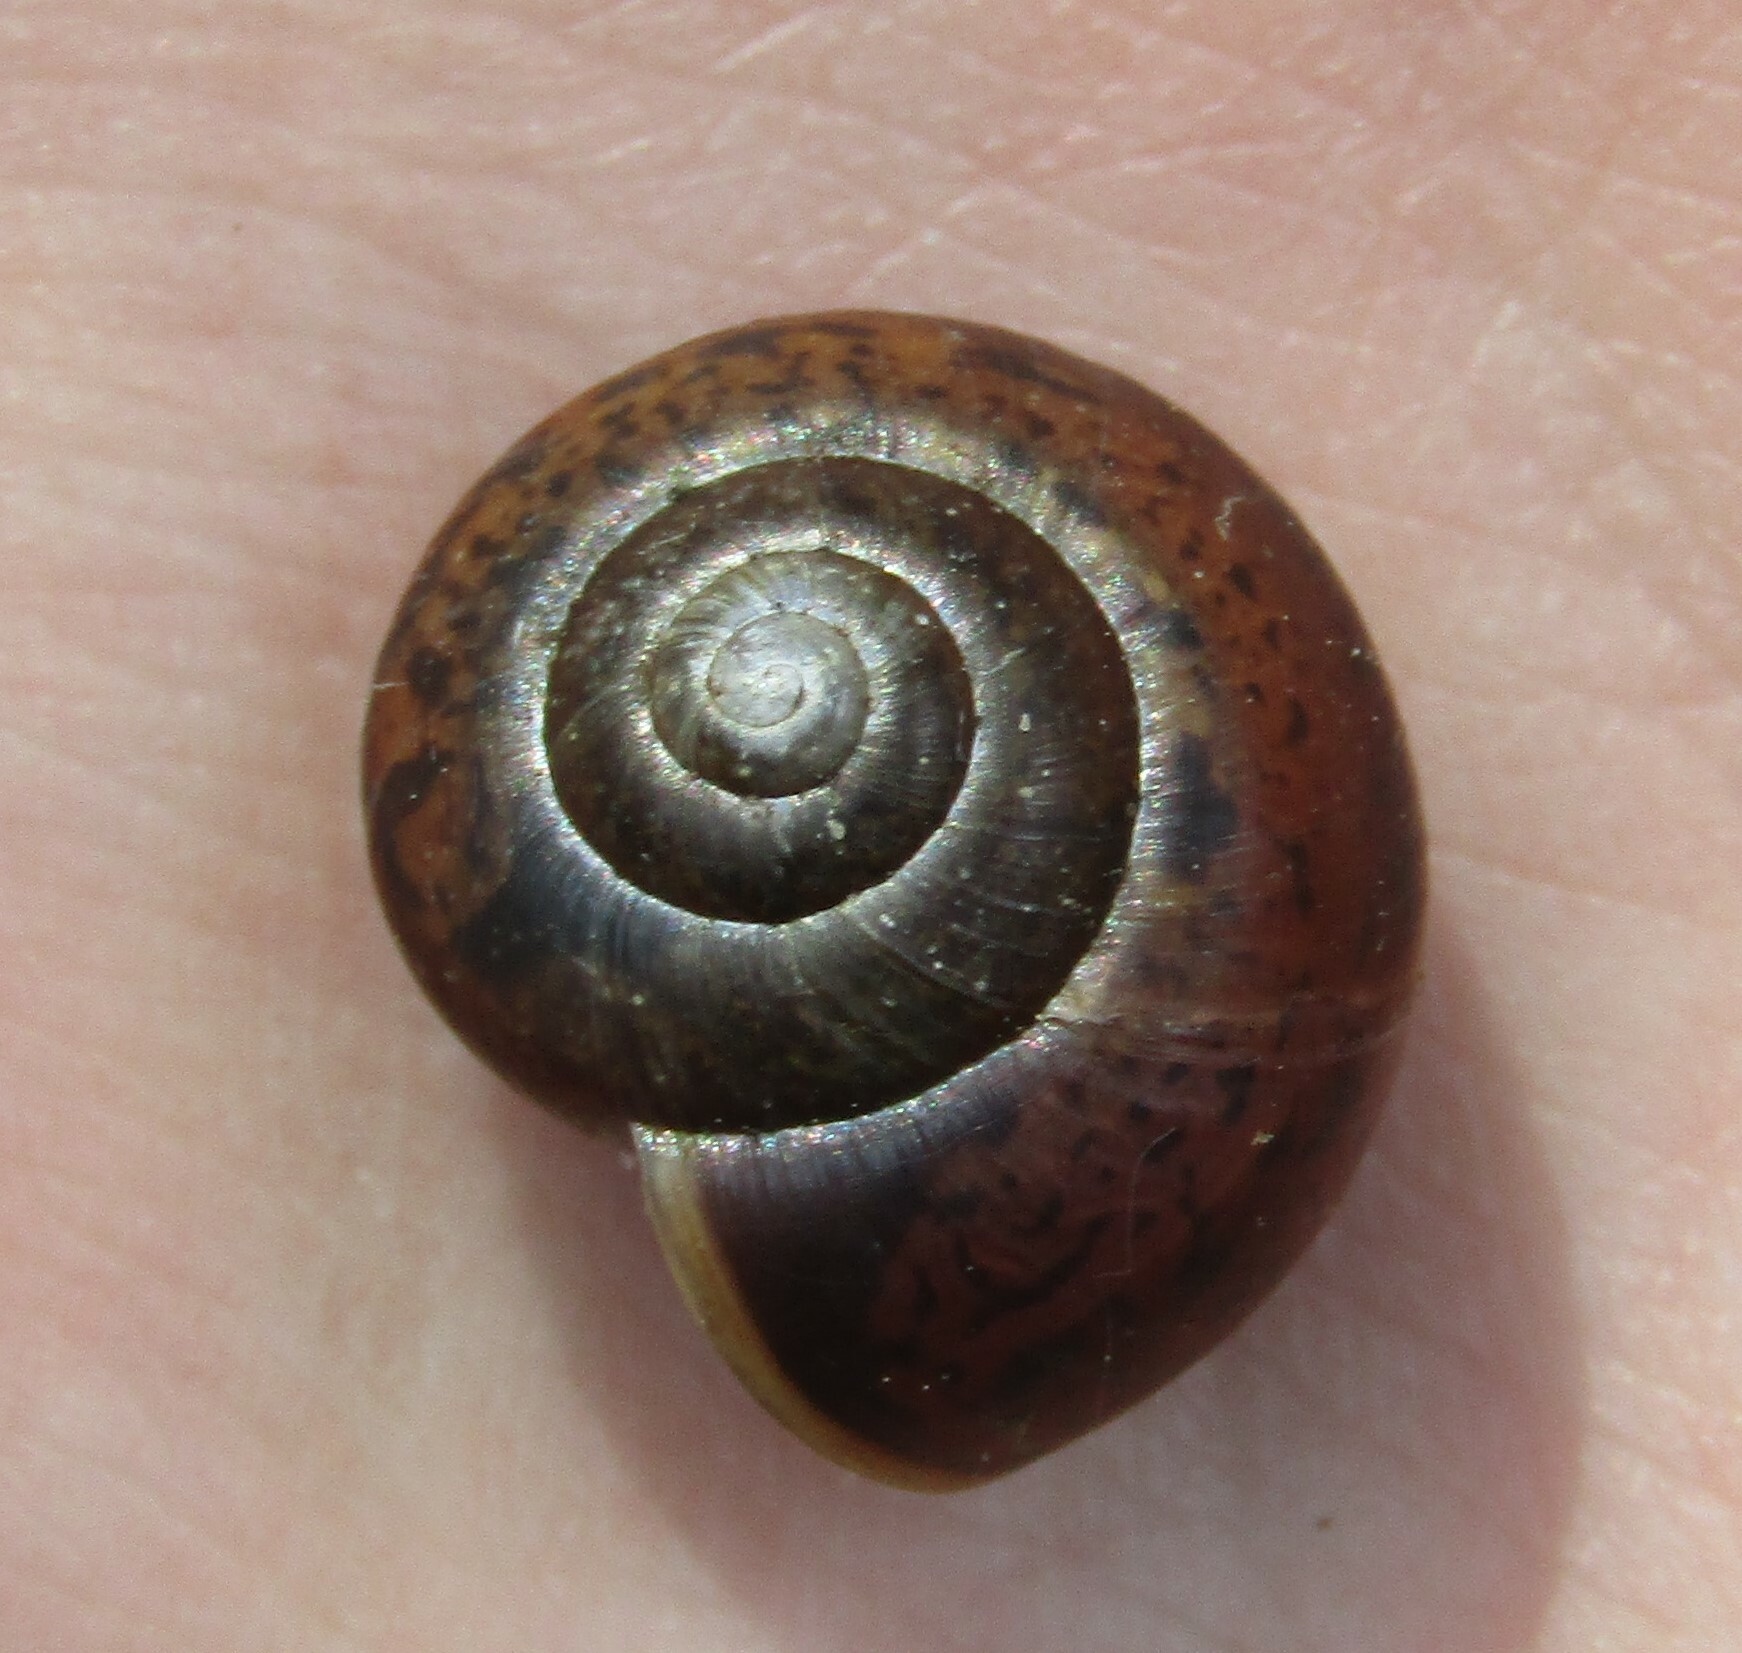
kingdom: Animalia
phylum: Mollusca
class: Gastropoda
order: Stylommatophora
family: Camaenidae
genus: Fruticicola
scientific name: Fruticicola fruticum
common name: Bush snail
